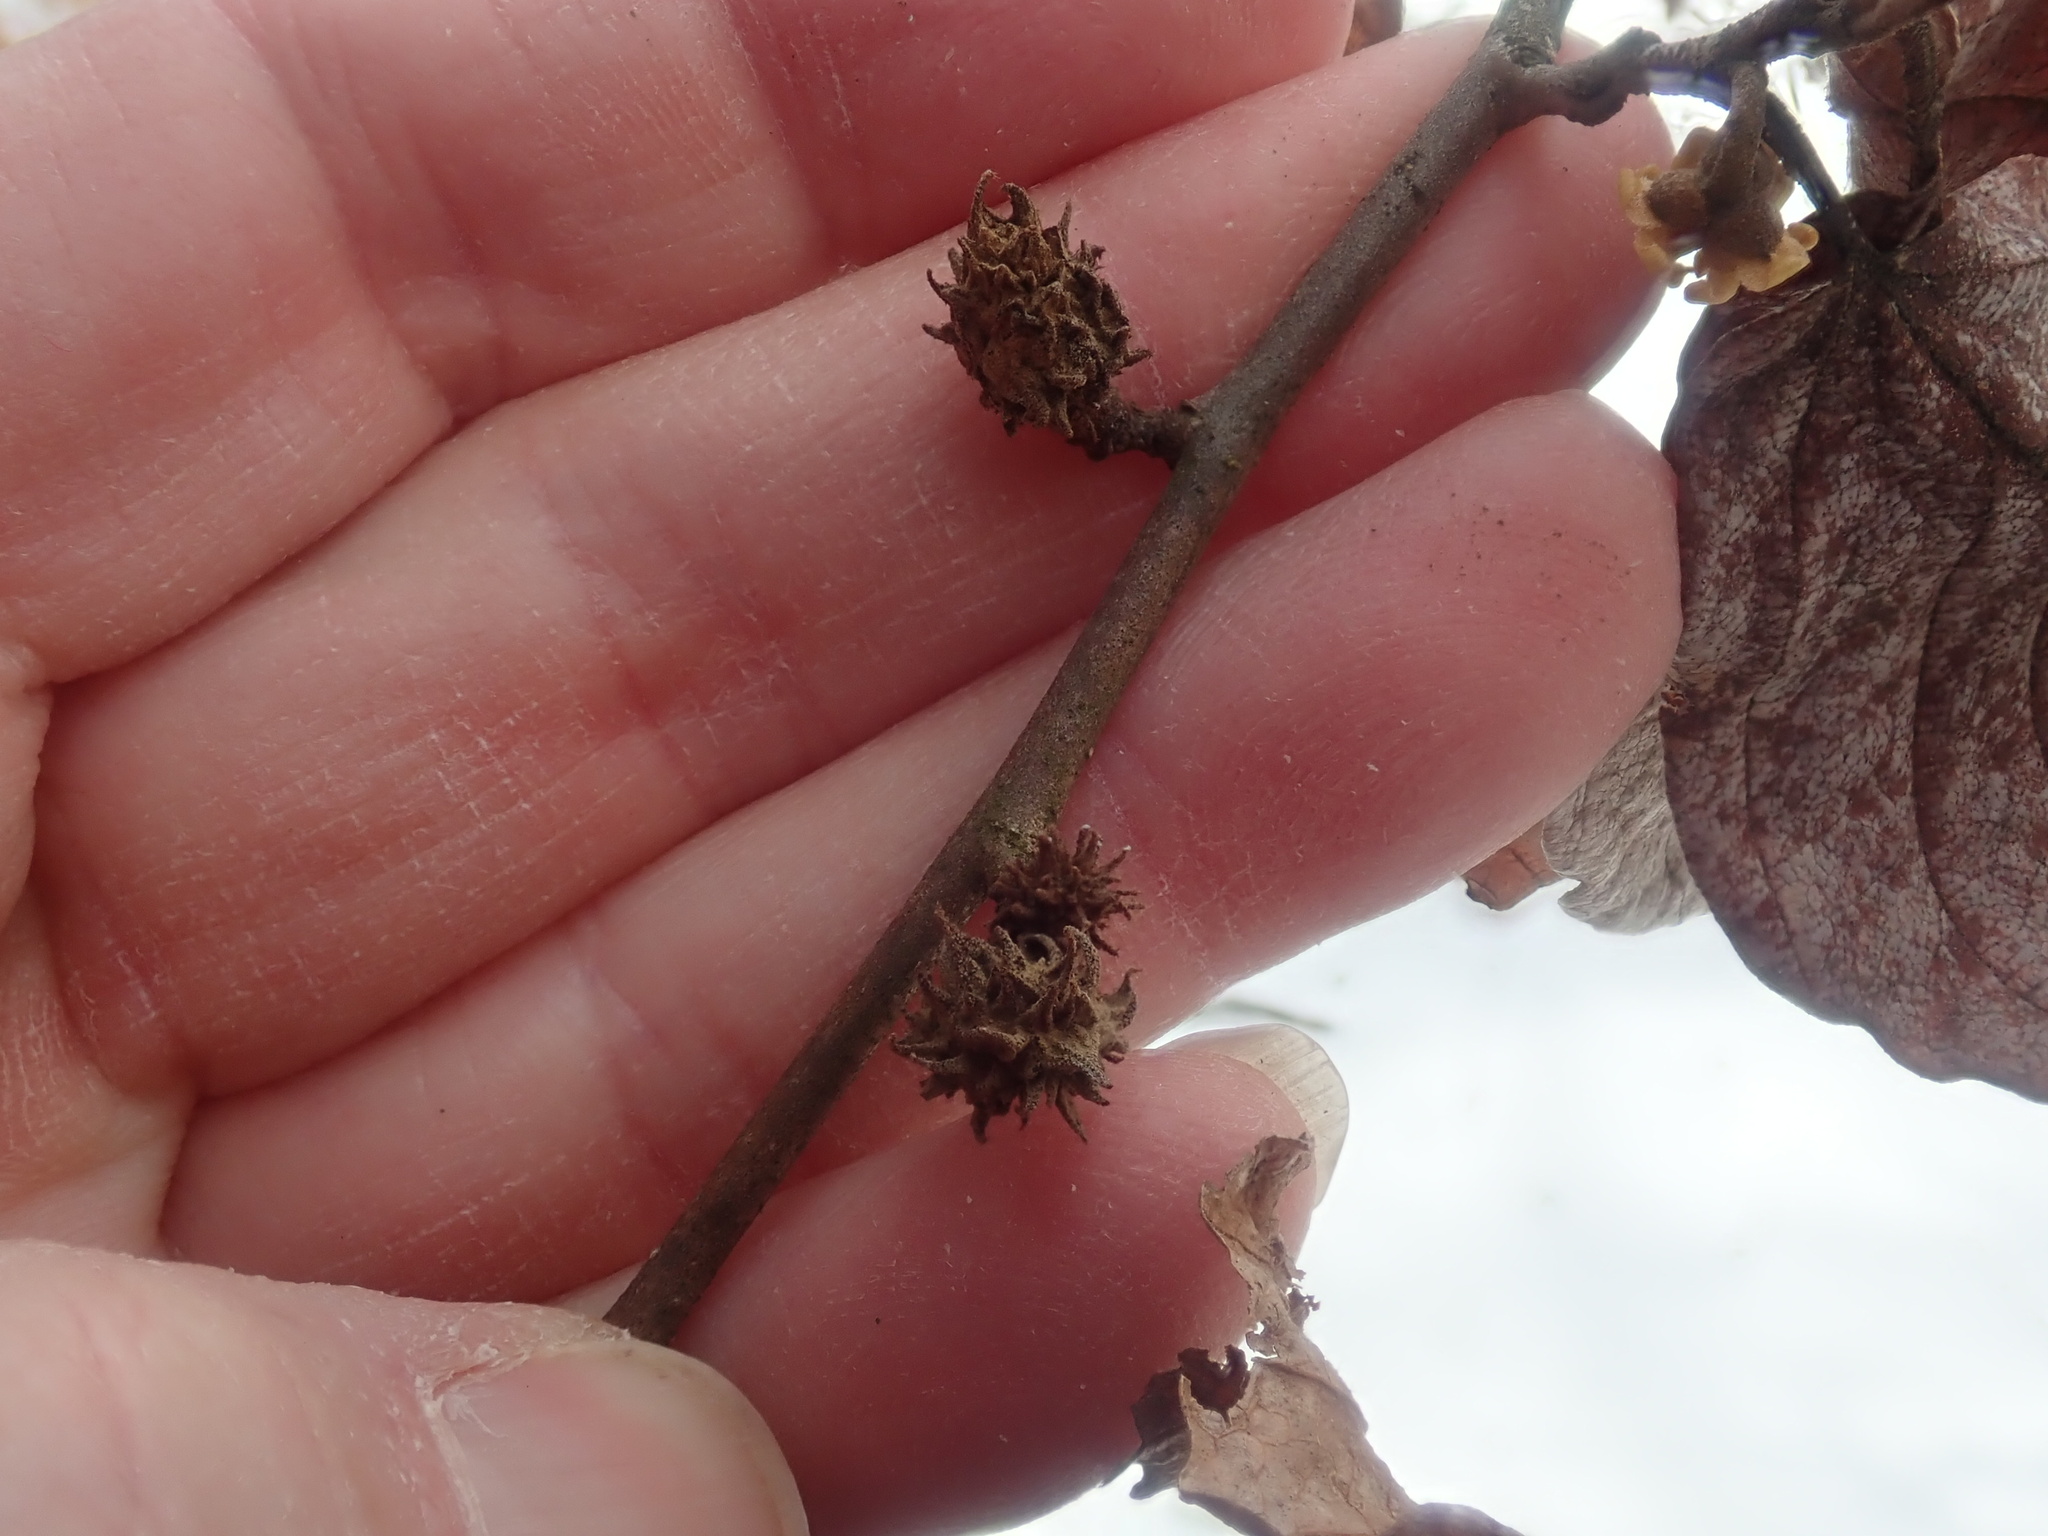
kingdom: Animalia
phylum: Arthropoda
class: Insecta
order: Hemiptera
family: Aphididae
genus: Hamamelistes
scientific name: Hamamelistes spinosus
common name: Witch hazel gall aphid
